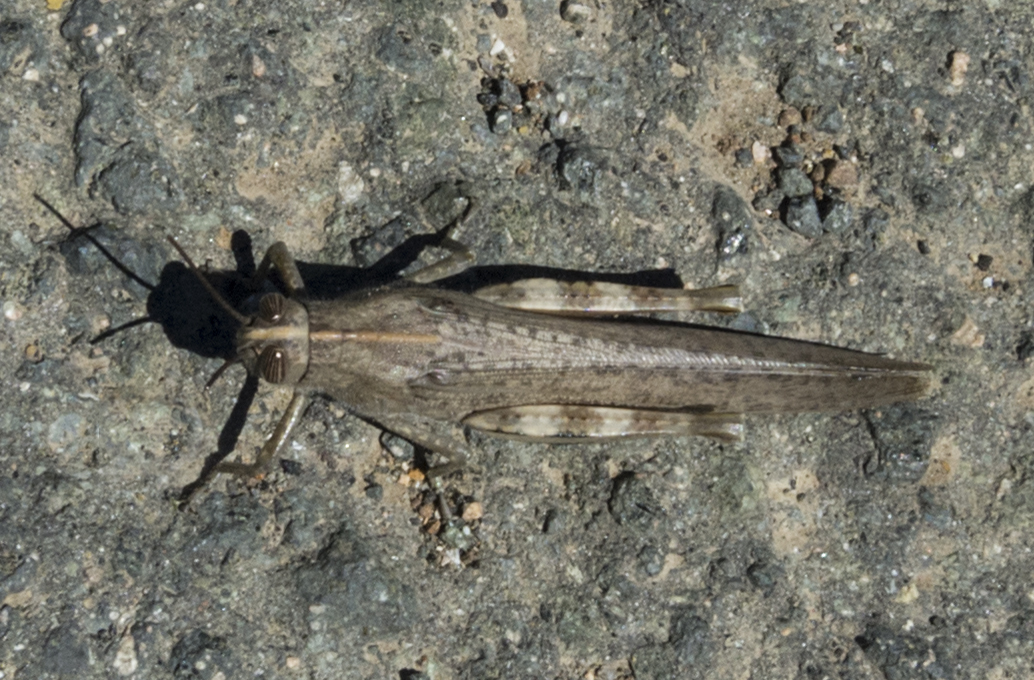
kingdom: Animalia
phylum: Arthropoda
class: Insecta
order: Orthoptera
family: Acrididae
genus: Anacridium
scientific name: Anacridium aegyptium
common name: Egyptian grasshopper
